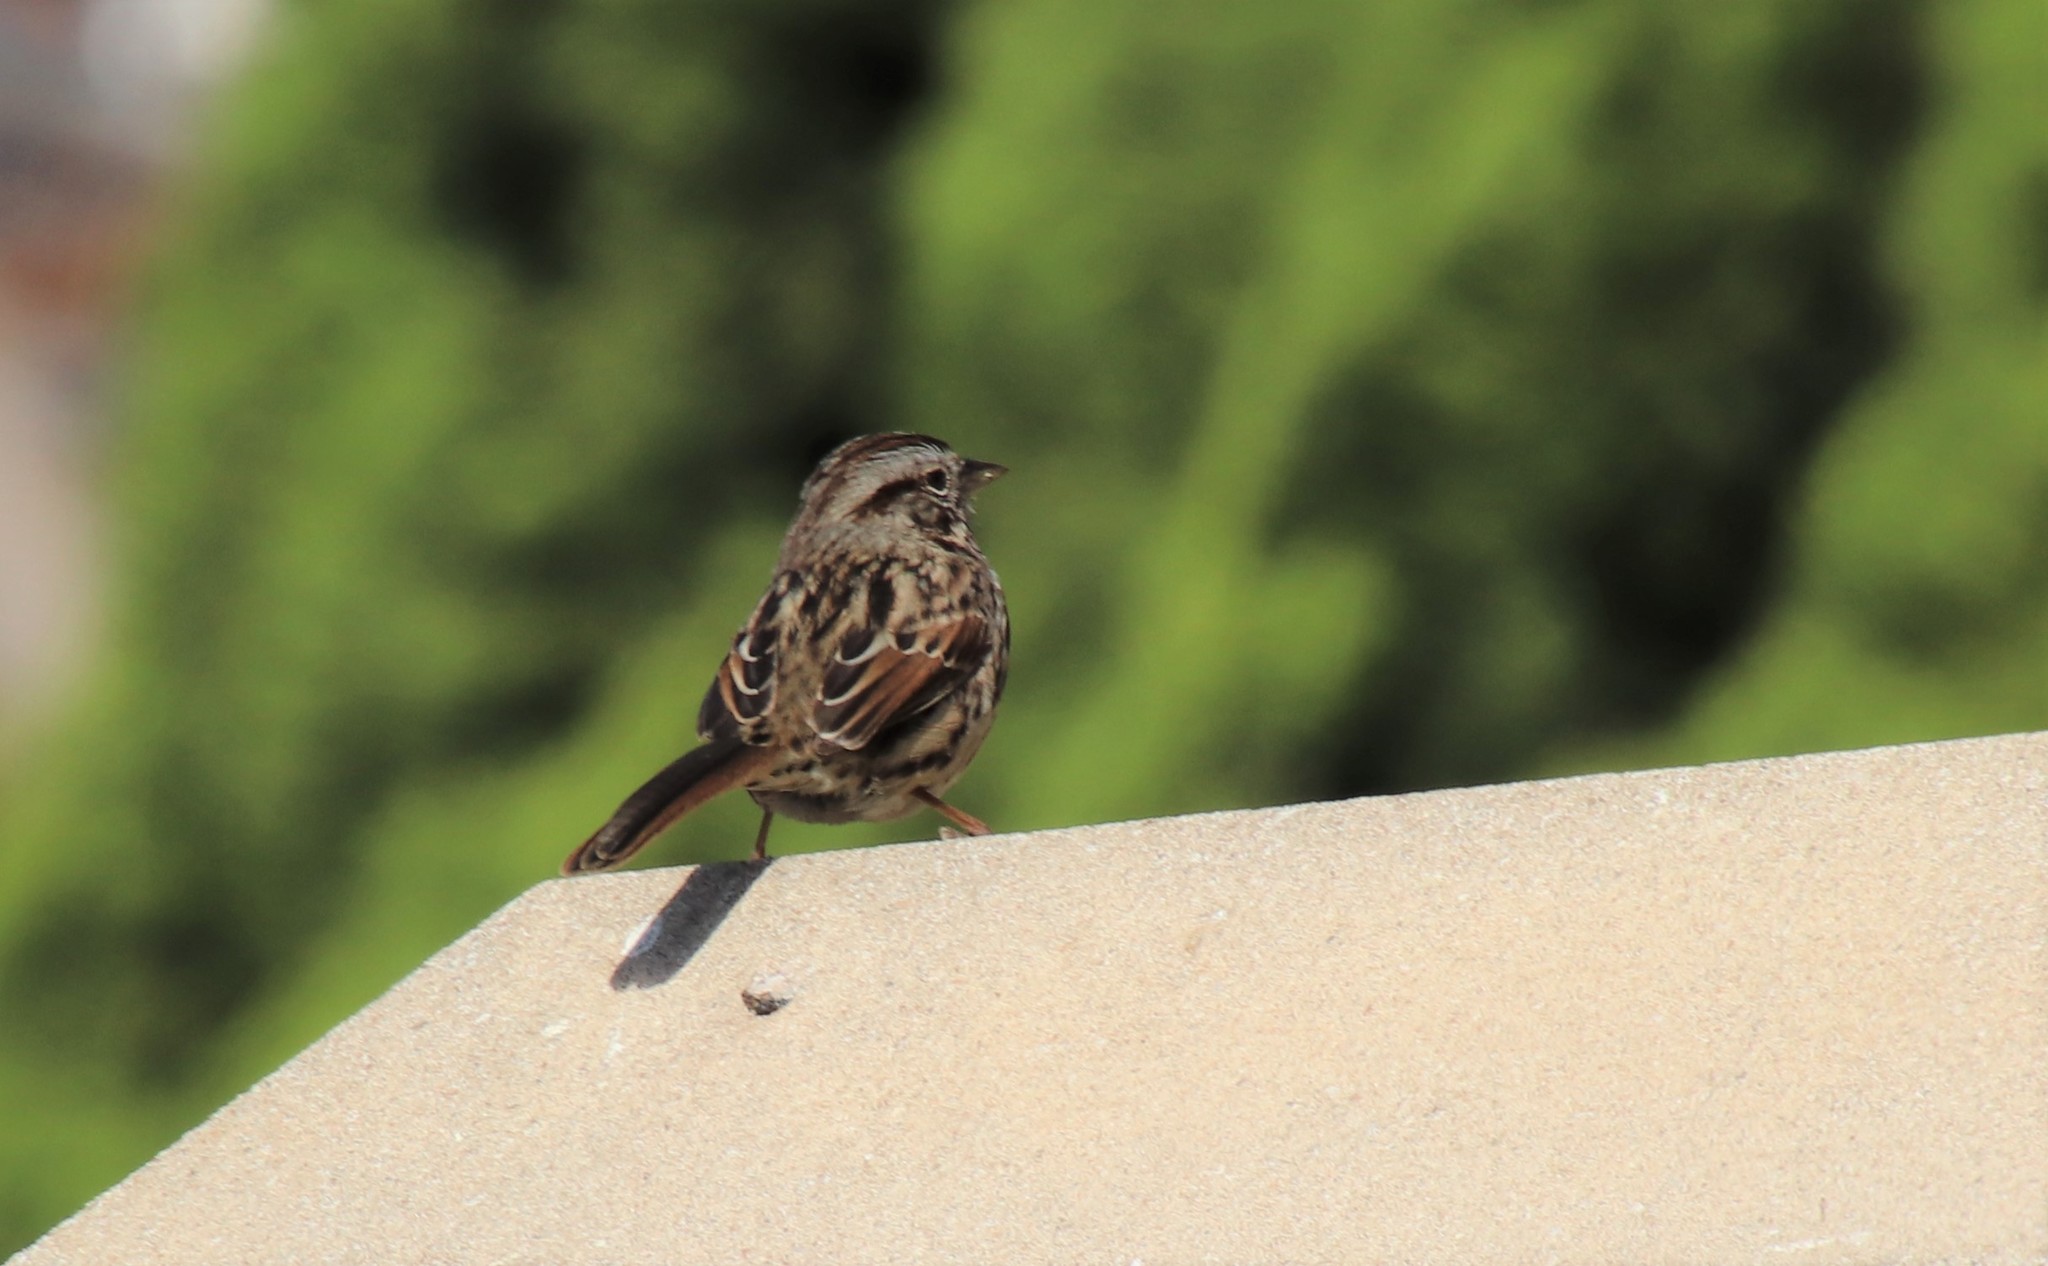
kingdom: Animalia
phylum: Chordata
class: Aves
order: Passeriformes
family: Passerellidae
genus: Melospiza
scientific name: Melospiza melodia
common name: Song sparrow
